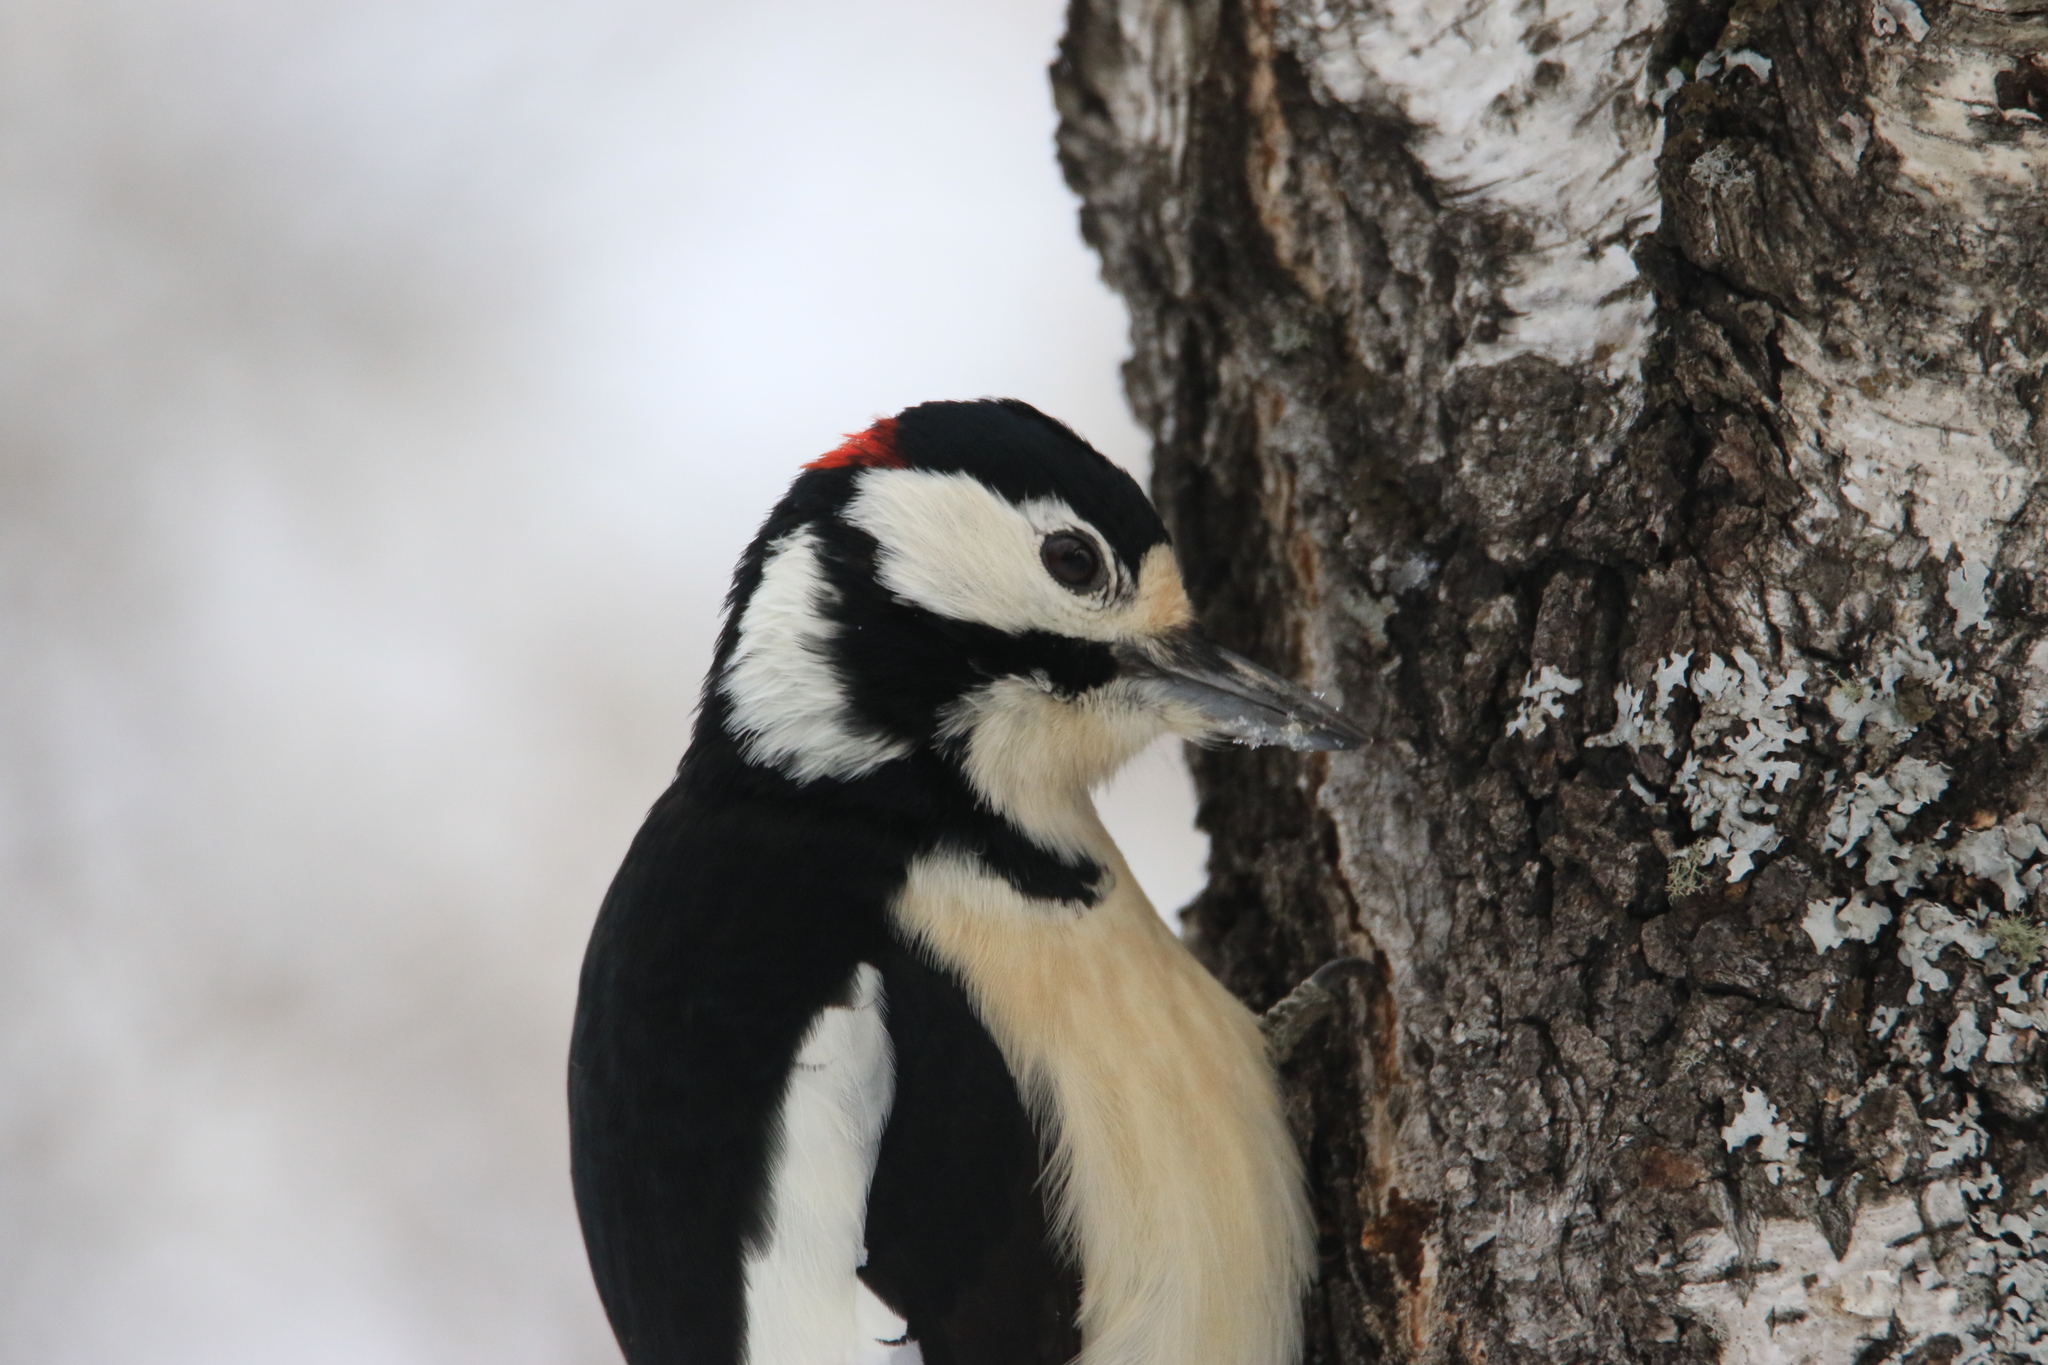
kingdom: Animalia
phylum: Chordata
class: Aves
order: Piciformes
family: Picidae
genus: Dendrocopos
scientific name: Dendrocopos major
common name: Great spotted woodpecker
